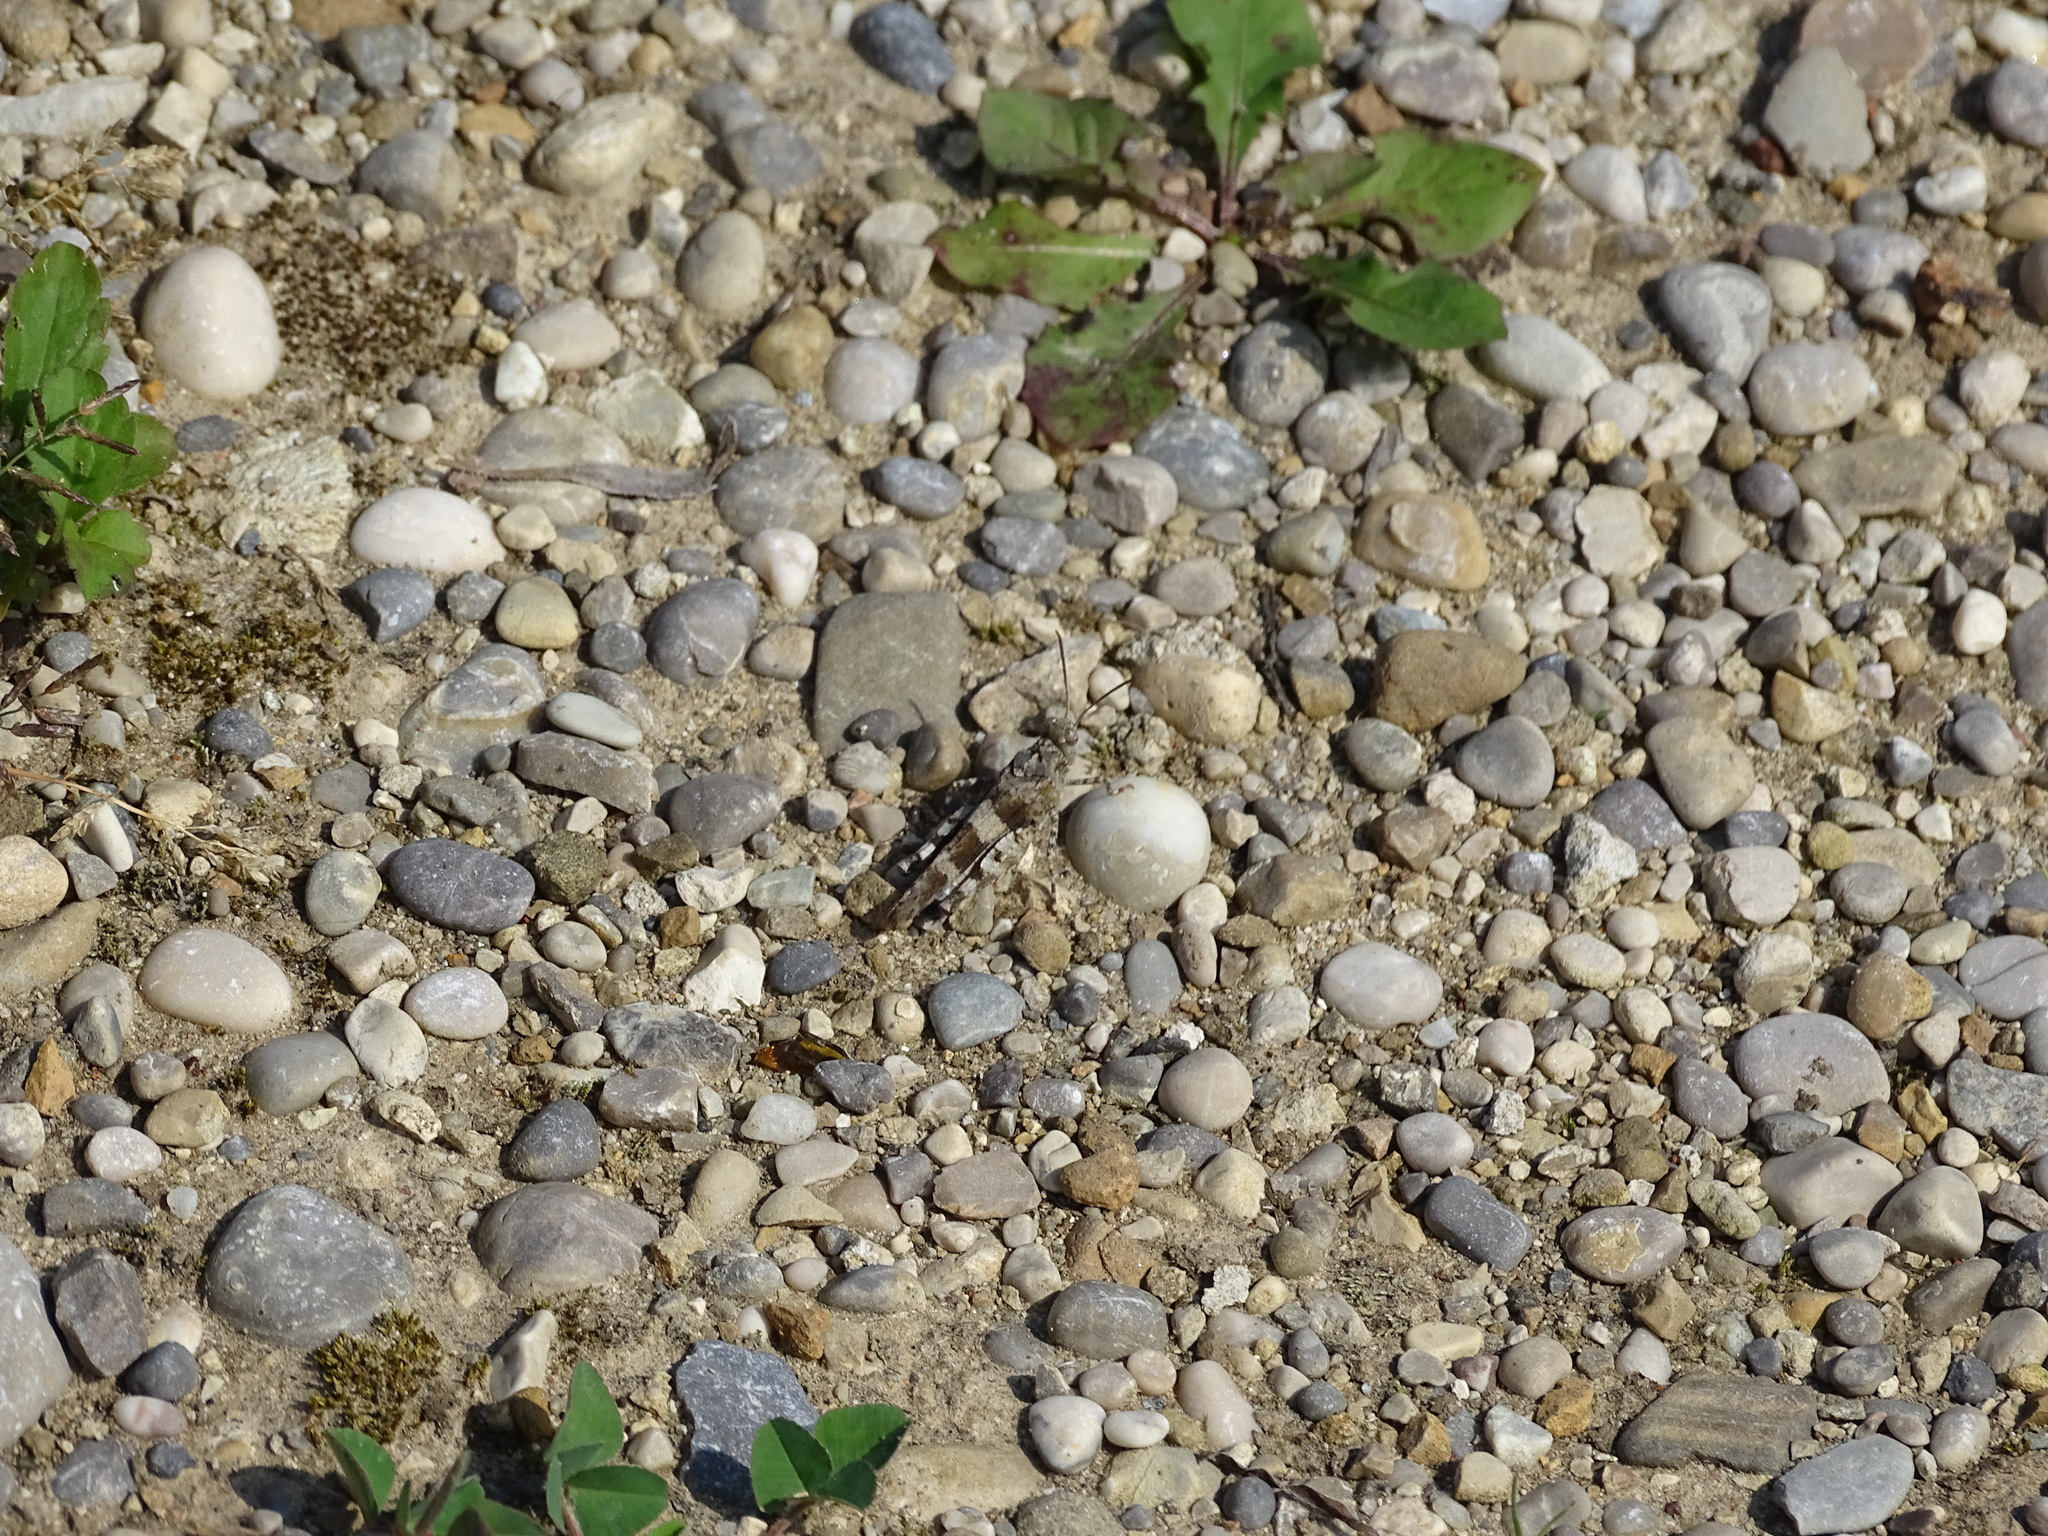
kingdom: Animalia
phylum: Arthropoda
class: Insecta
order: Orthoptera
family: Acrididae
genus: Oedipoda
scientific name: Oedipoda caerulescens
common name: Blue-winged grasshopper
